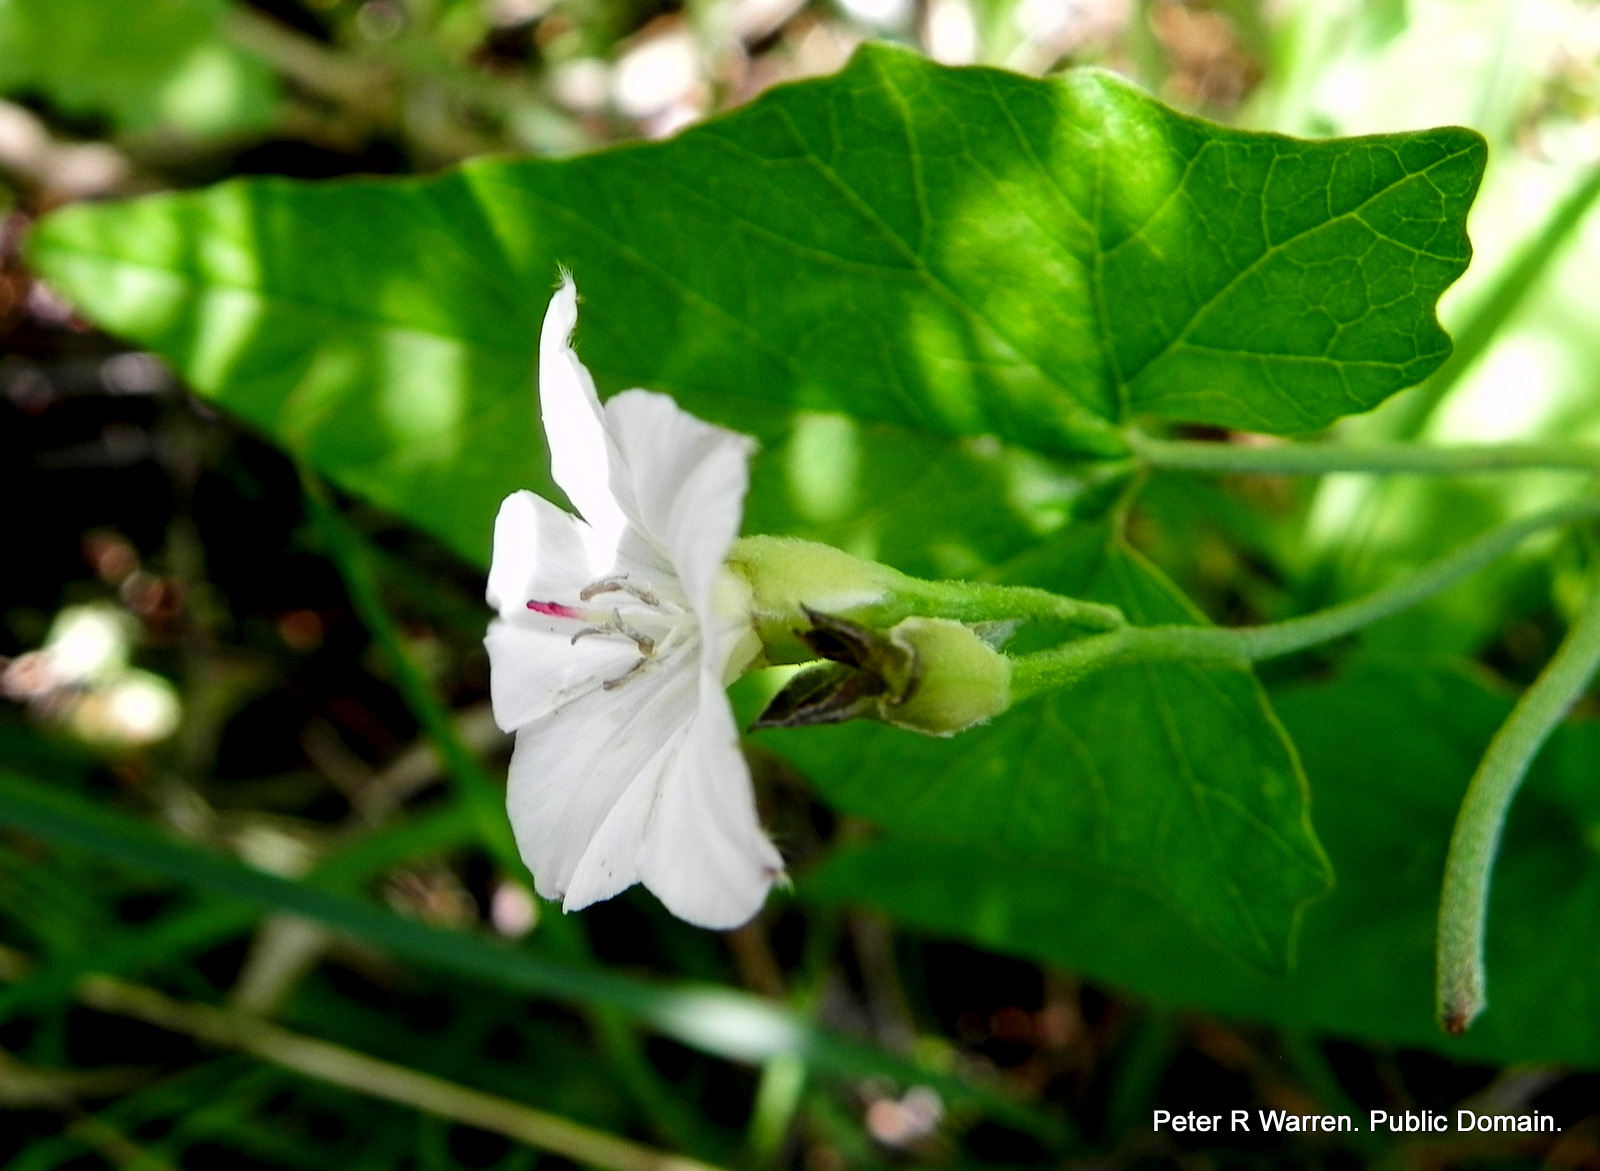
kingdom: Plantae
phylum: Tracheophyta
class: Magnoliopsida
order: Solanales
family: Convolvulaceae
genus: Convolvulus
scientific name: Convolvulus farinosus
